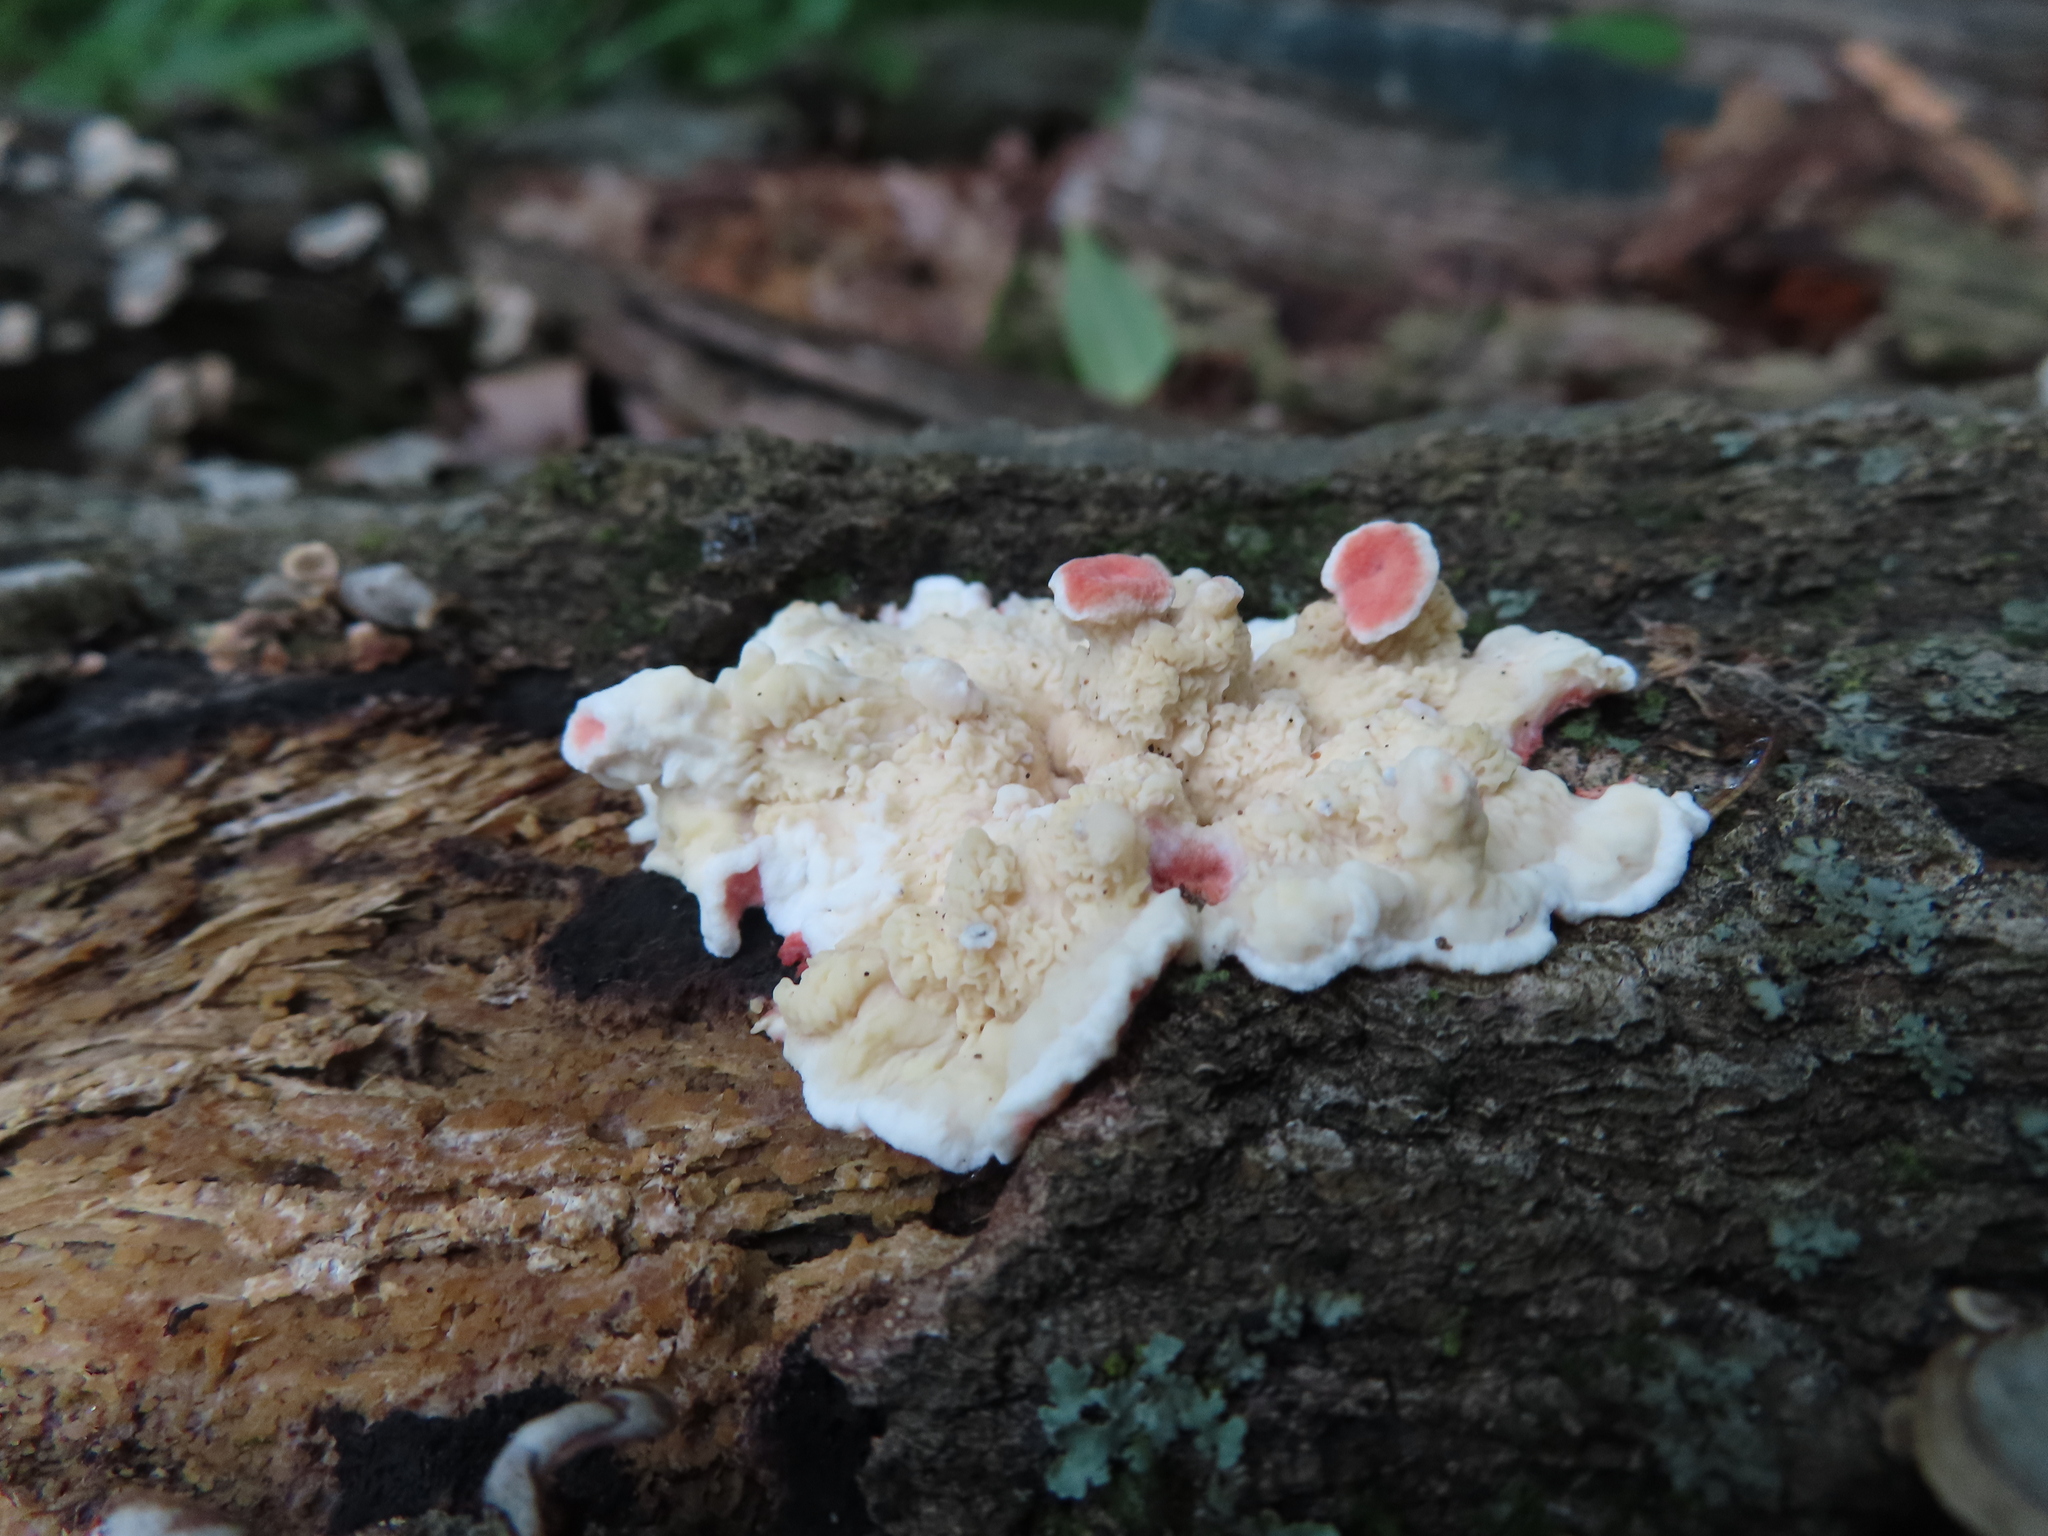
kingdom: Fungi
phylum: Basidiomycota
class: Agaricomycetes
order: Polyporales
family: Irpicaceae
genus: Byssomerulius
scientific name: Byssomerulius incarnatus
